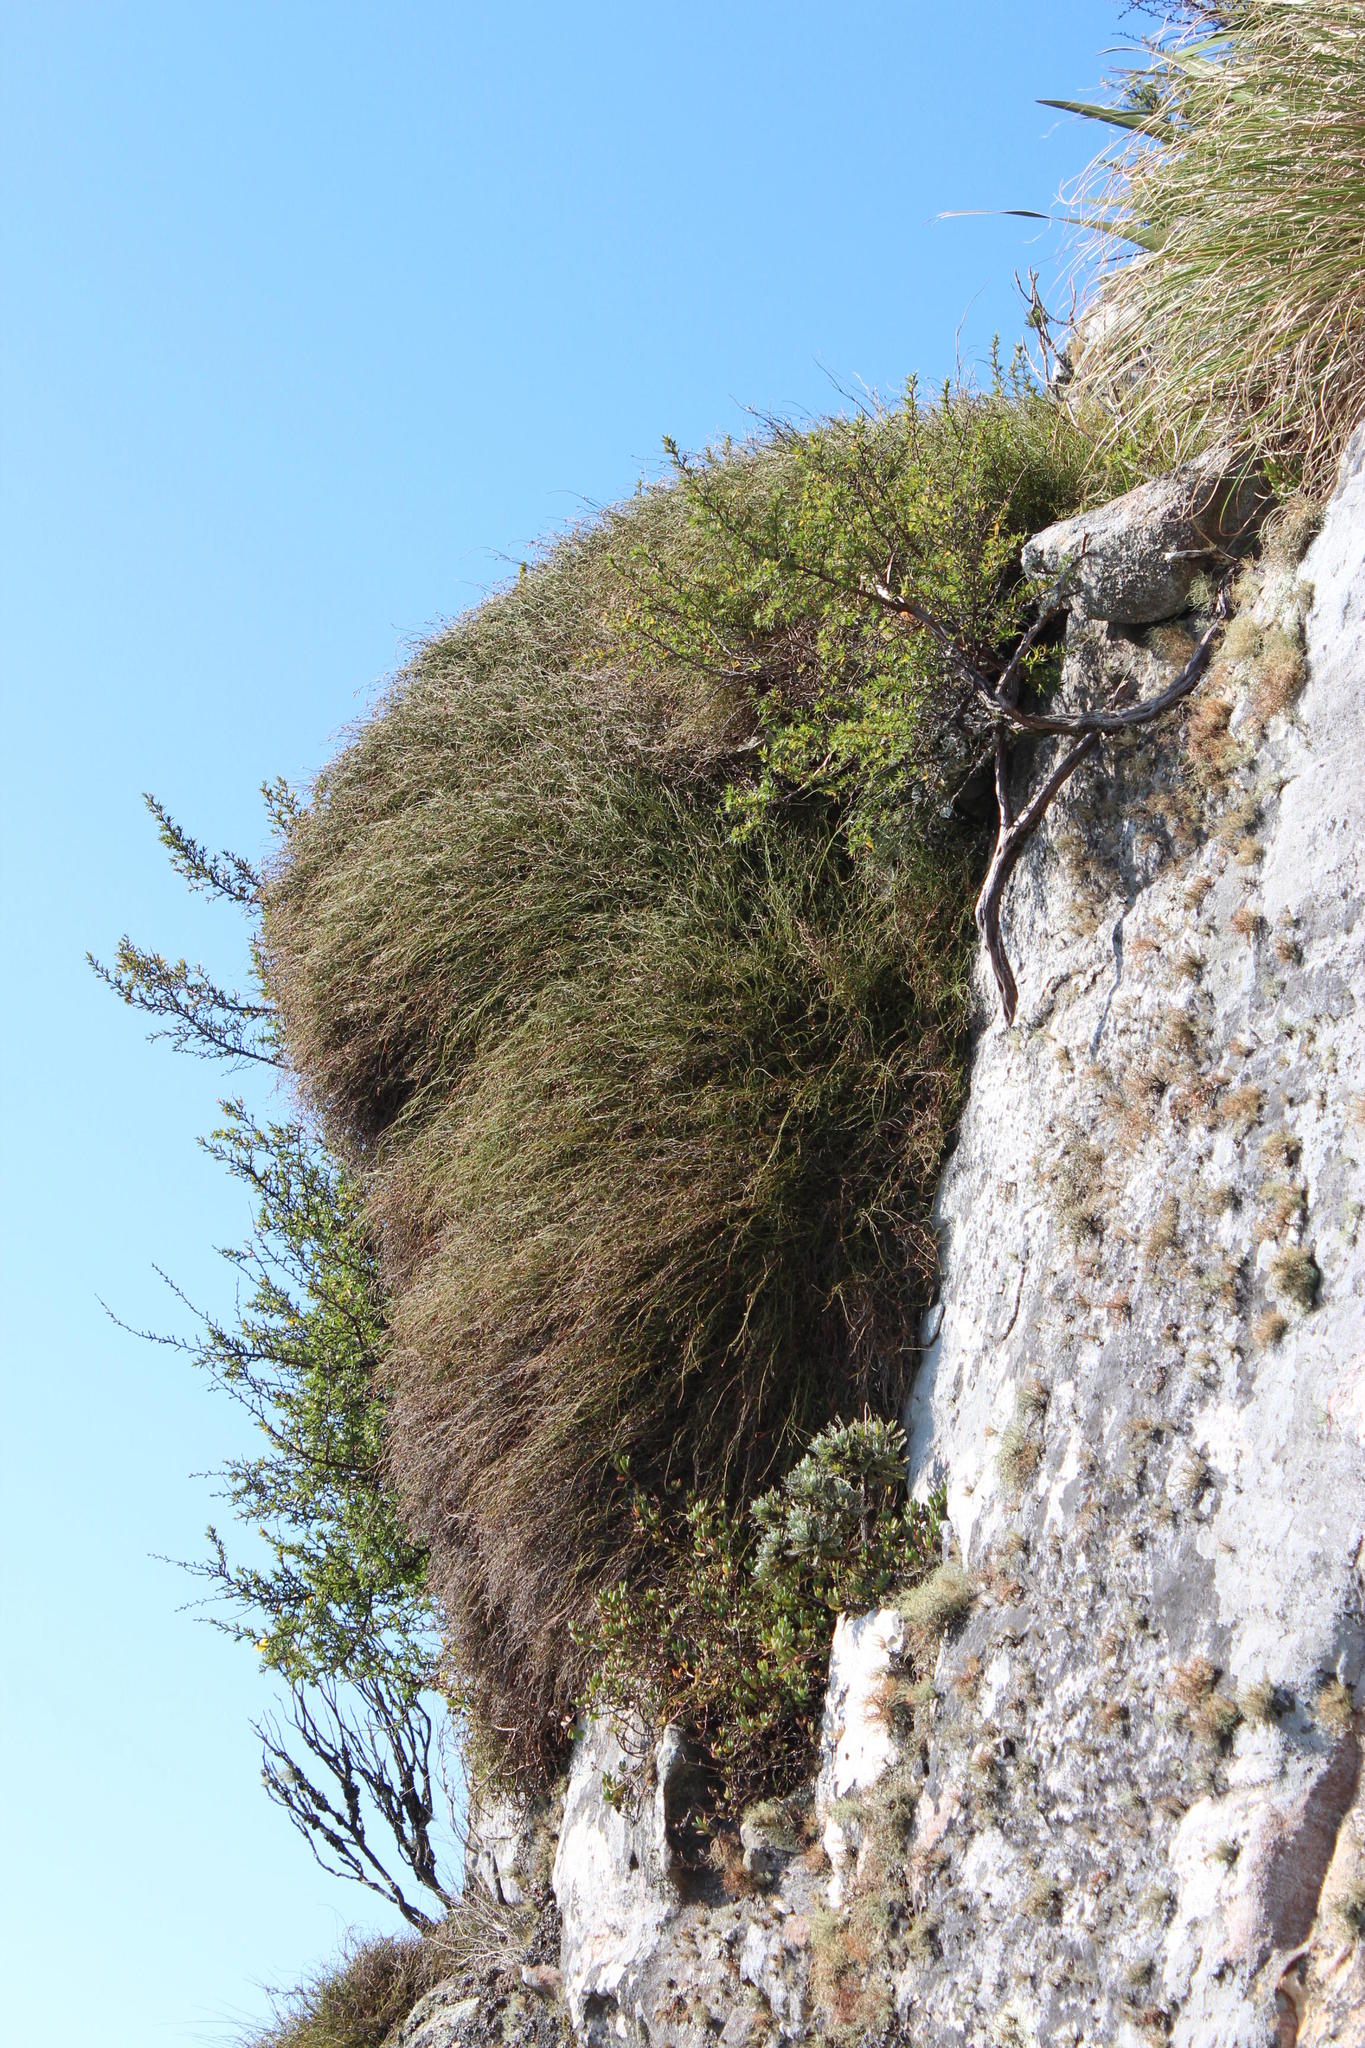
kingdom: Plantae
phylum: Tracheophyta
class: Liliopsida
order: Poales
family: Restionaceae
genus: Restio
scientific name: Restio perplexus
